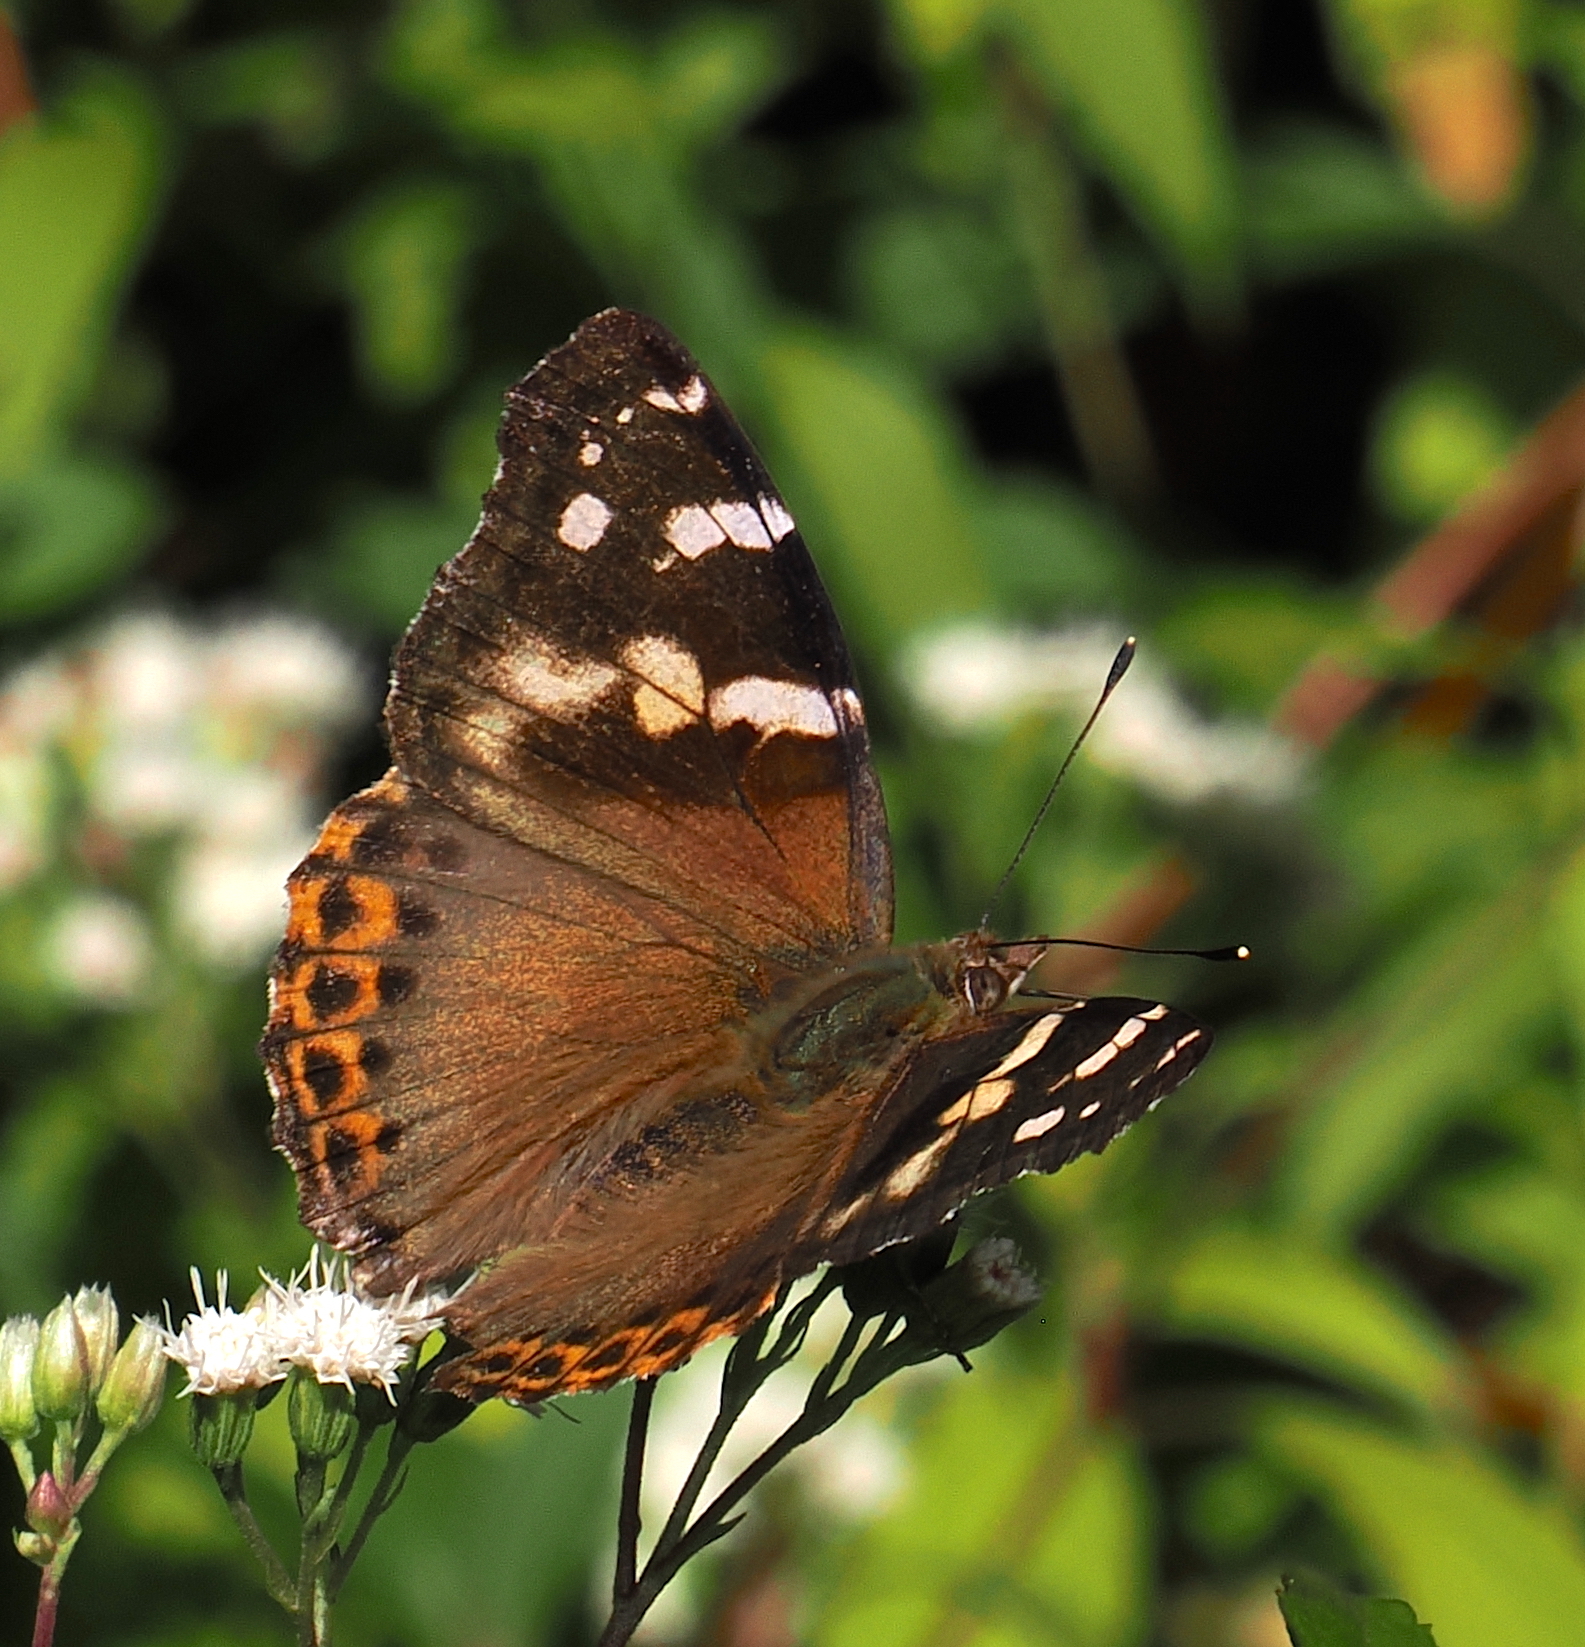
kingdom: Animalia
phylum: Arthropoda
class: Insecta
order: Lepidoptera
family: Nymphalidae
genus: Vanessa
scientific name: Vanessa dejeani
